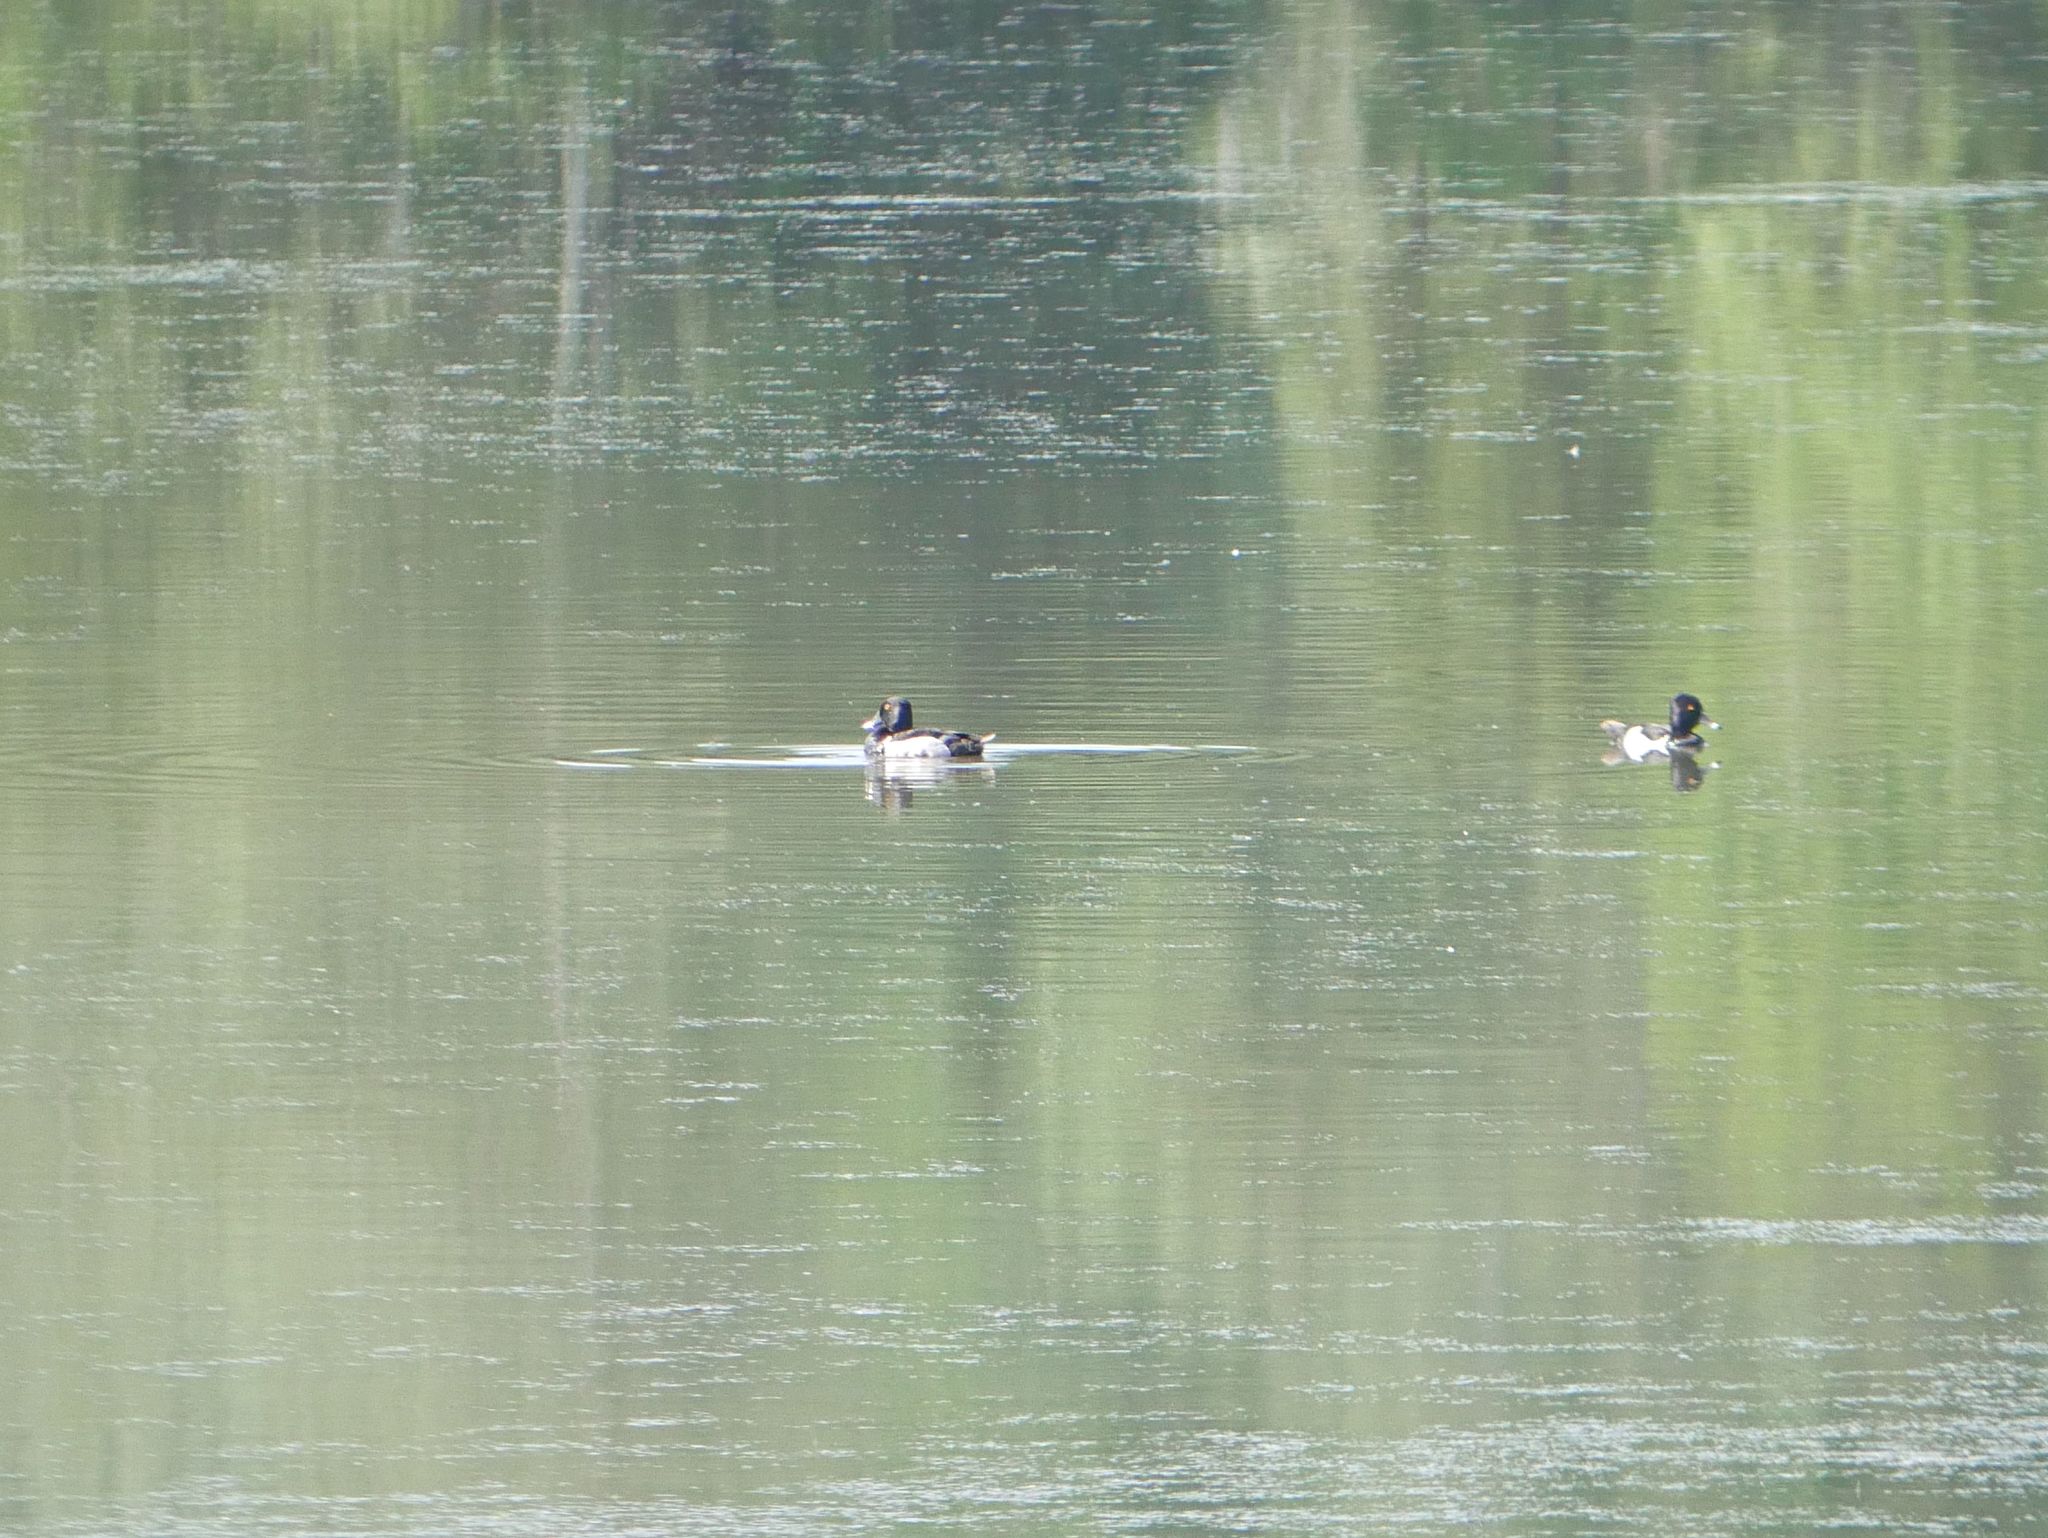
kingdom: Animalia
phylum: Chordata
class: Aves
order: Anseriformes
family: Anatidae
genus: Aythya
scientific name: Aythya collaris
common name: Ring-necked duck
